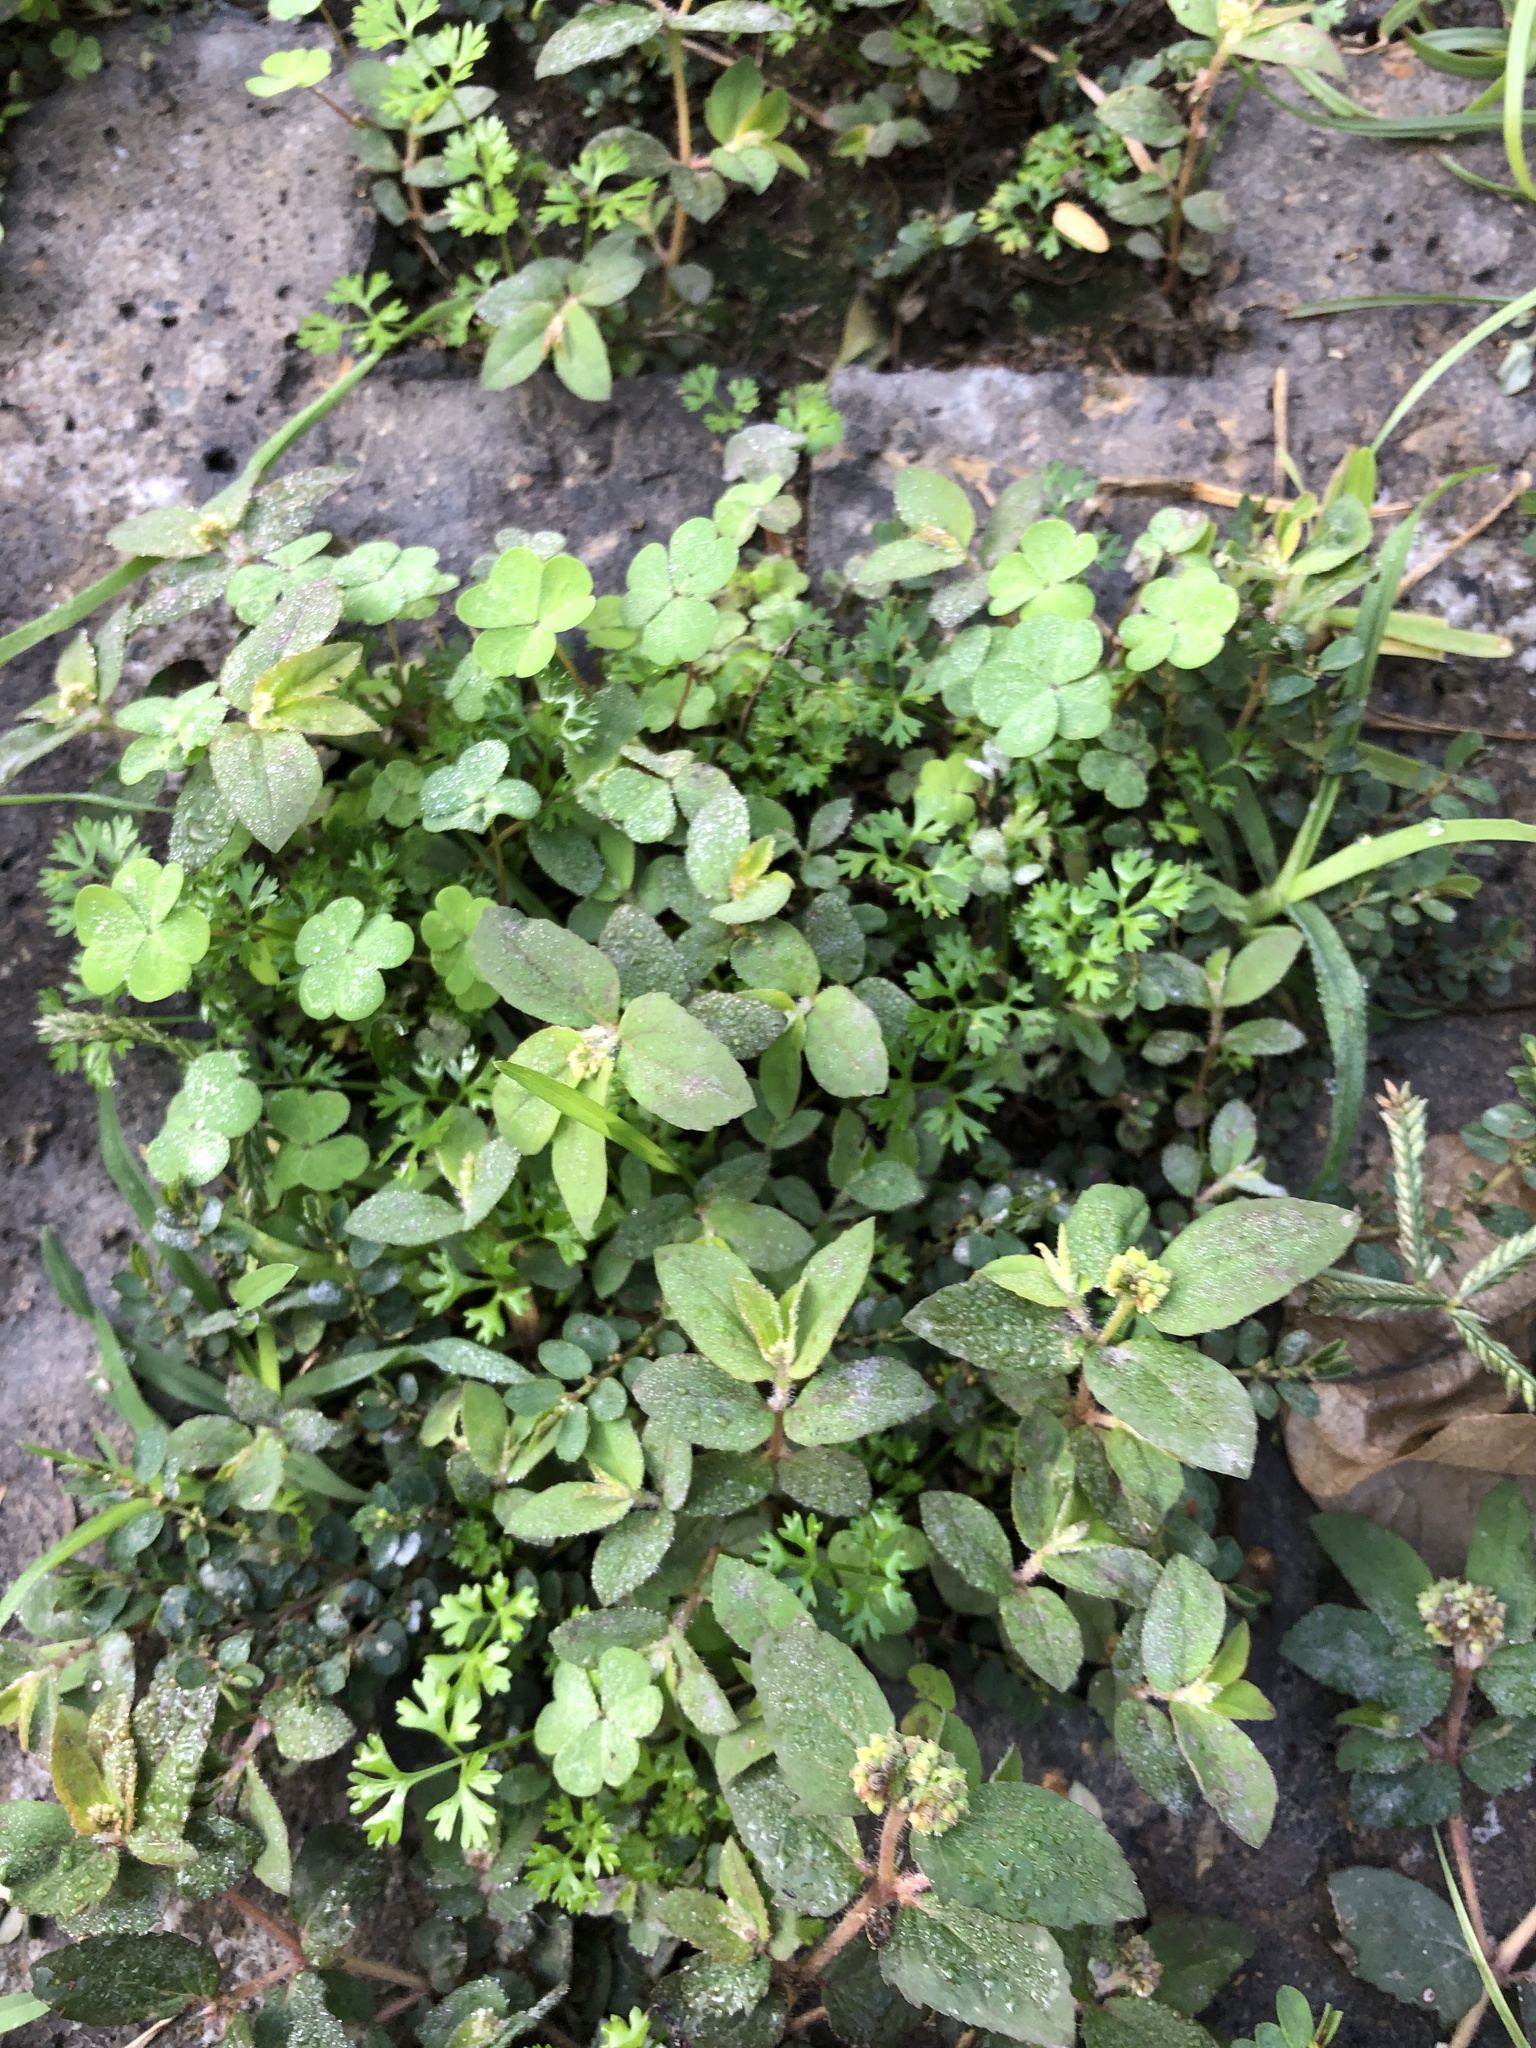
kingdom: Plantae
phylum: Tracheophyta
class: Magnoliopsida
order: Malpighiales
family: Euphorbiaceae
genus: Euphorbia
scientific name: Euphorbia ophthalmica
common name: Florida hammock sandmat
